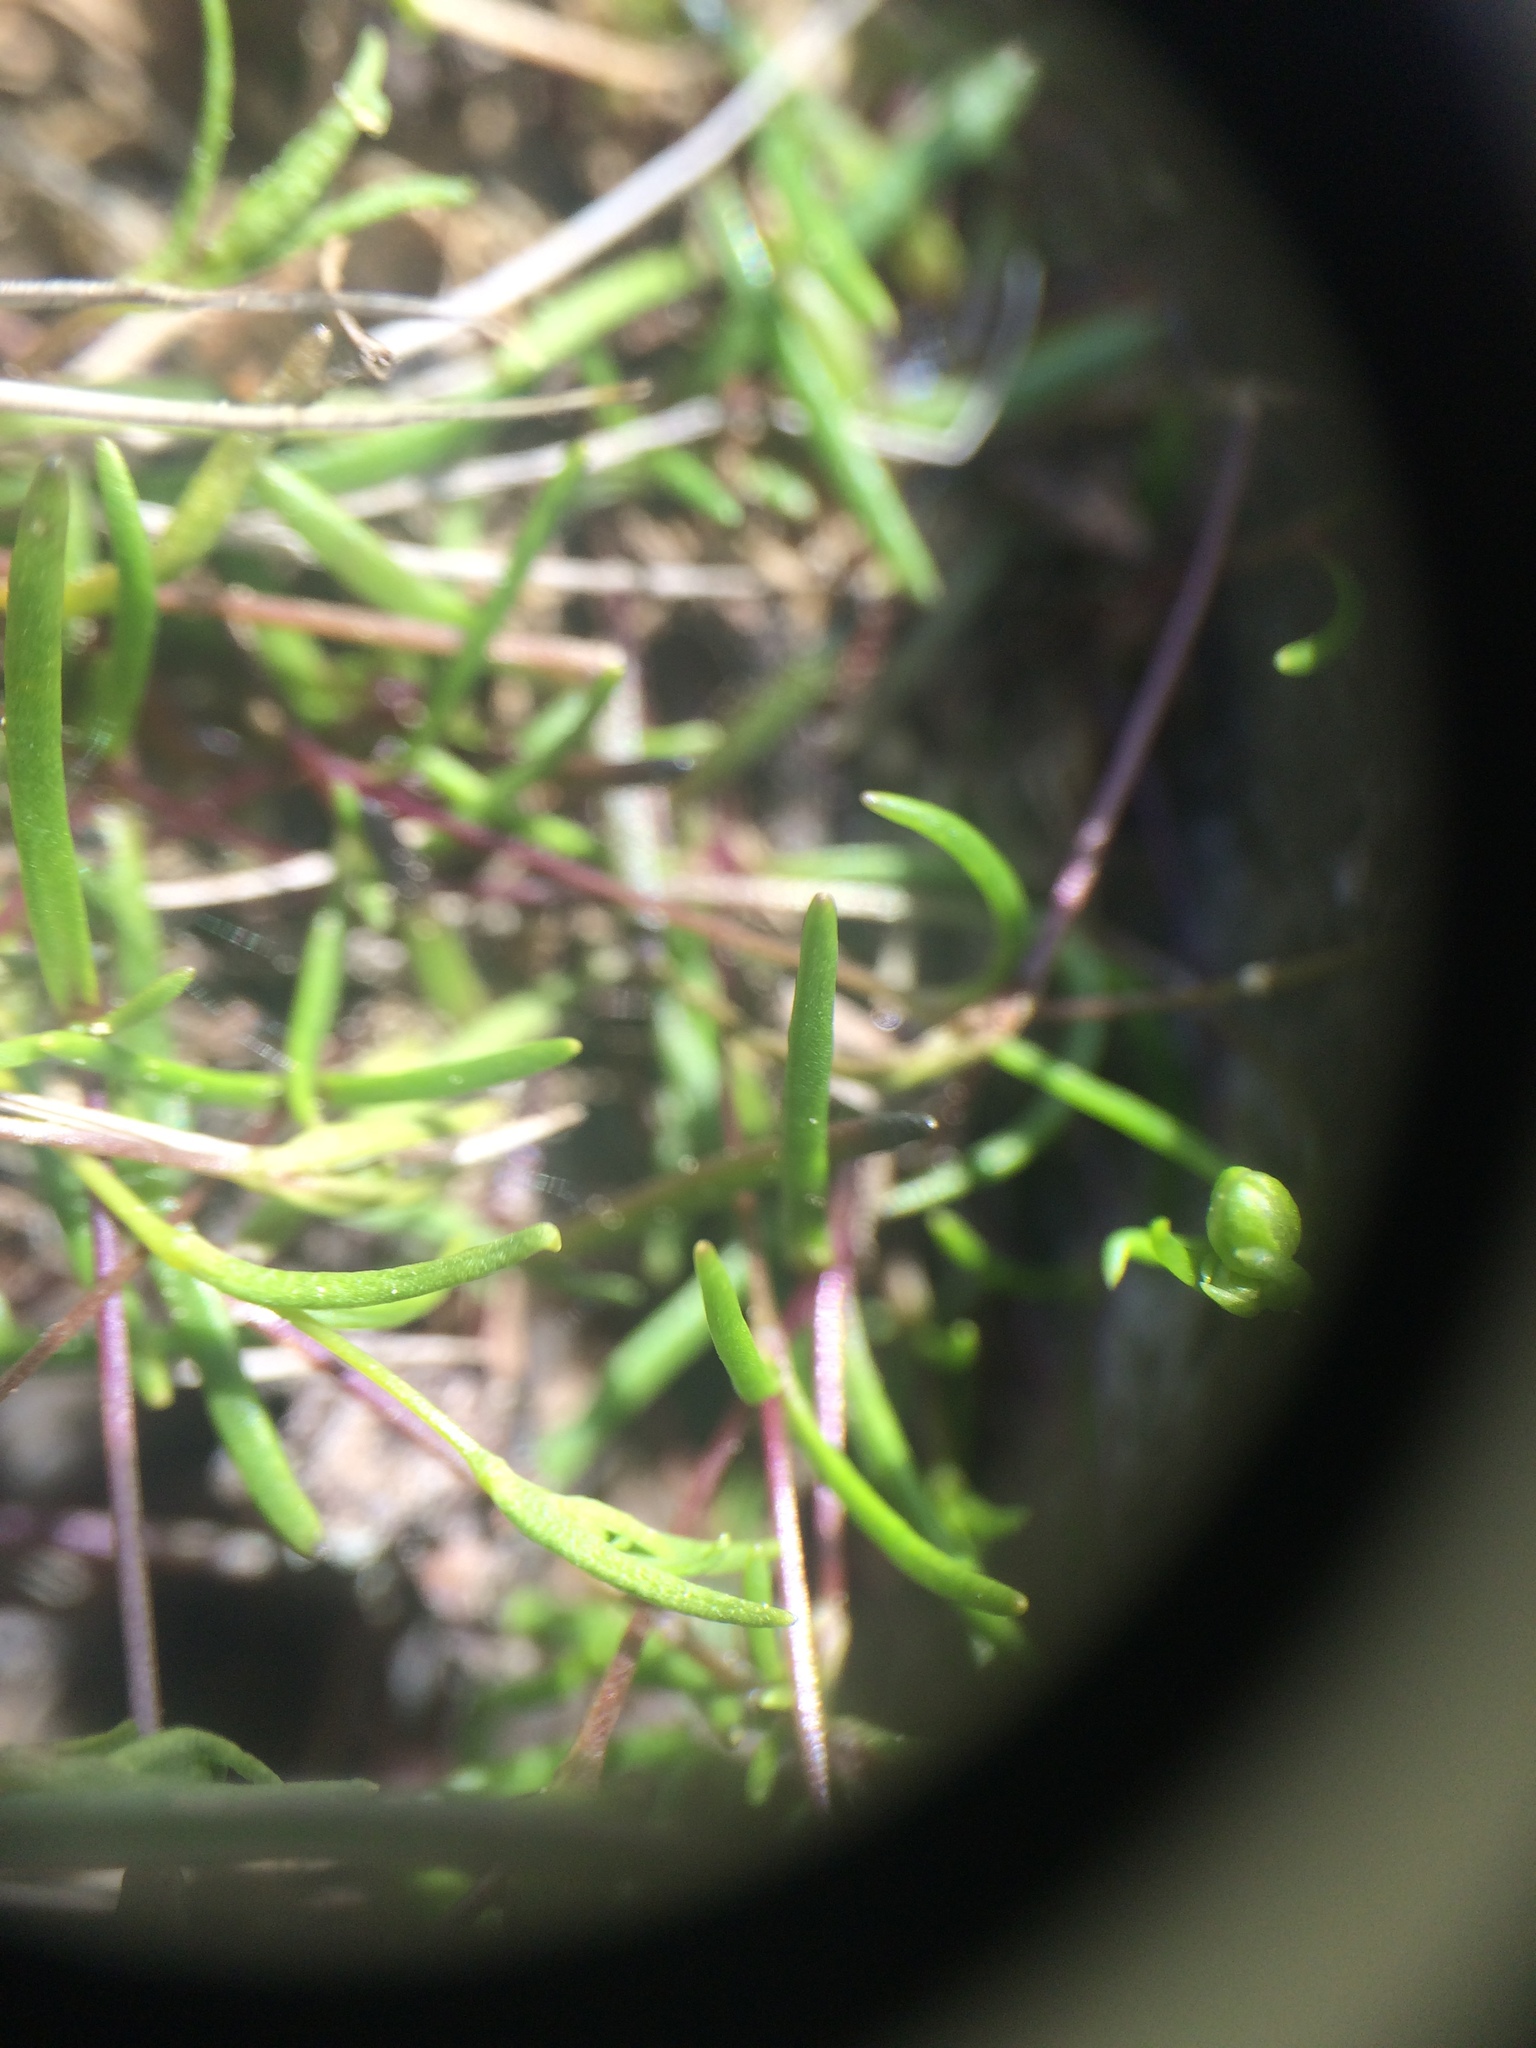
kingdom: Plantae
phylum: Tracheophyta
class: Magnoliopsida
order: Caryophyllales
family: Caryophyllaceae
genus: Geocarpon
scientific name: Geocarpon groenlandicum
